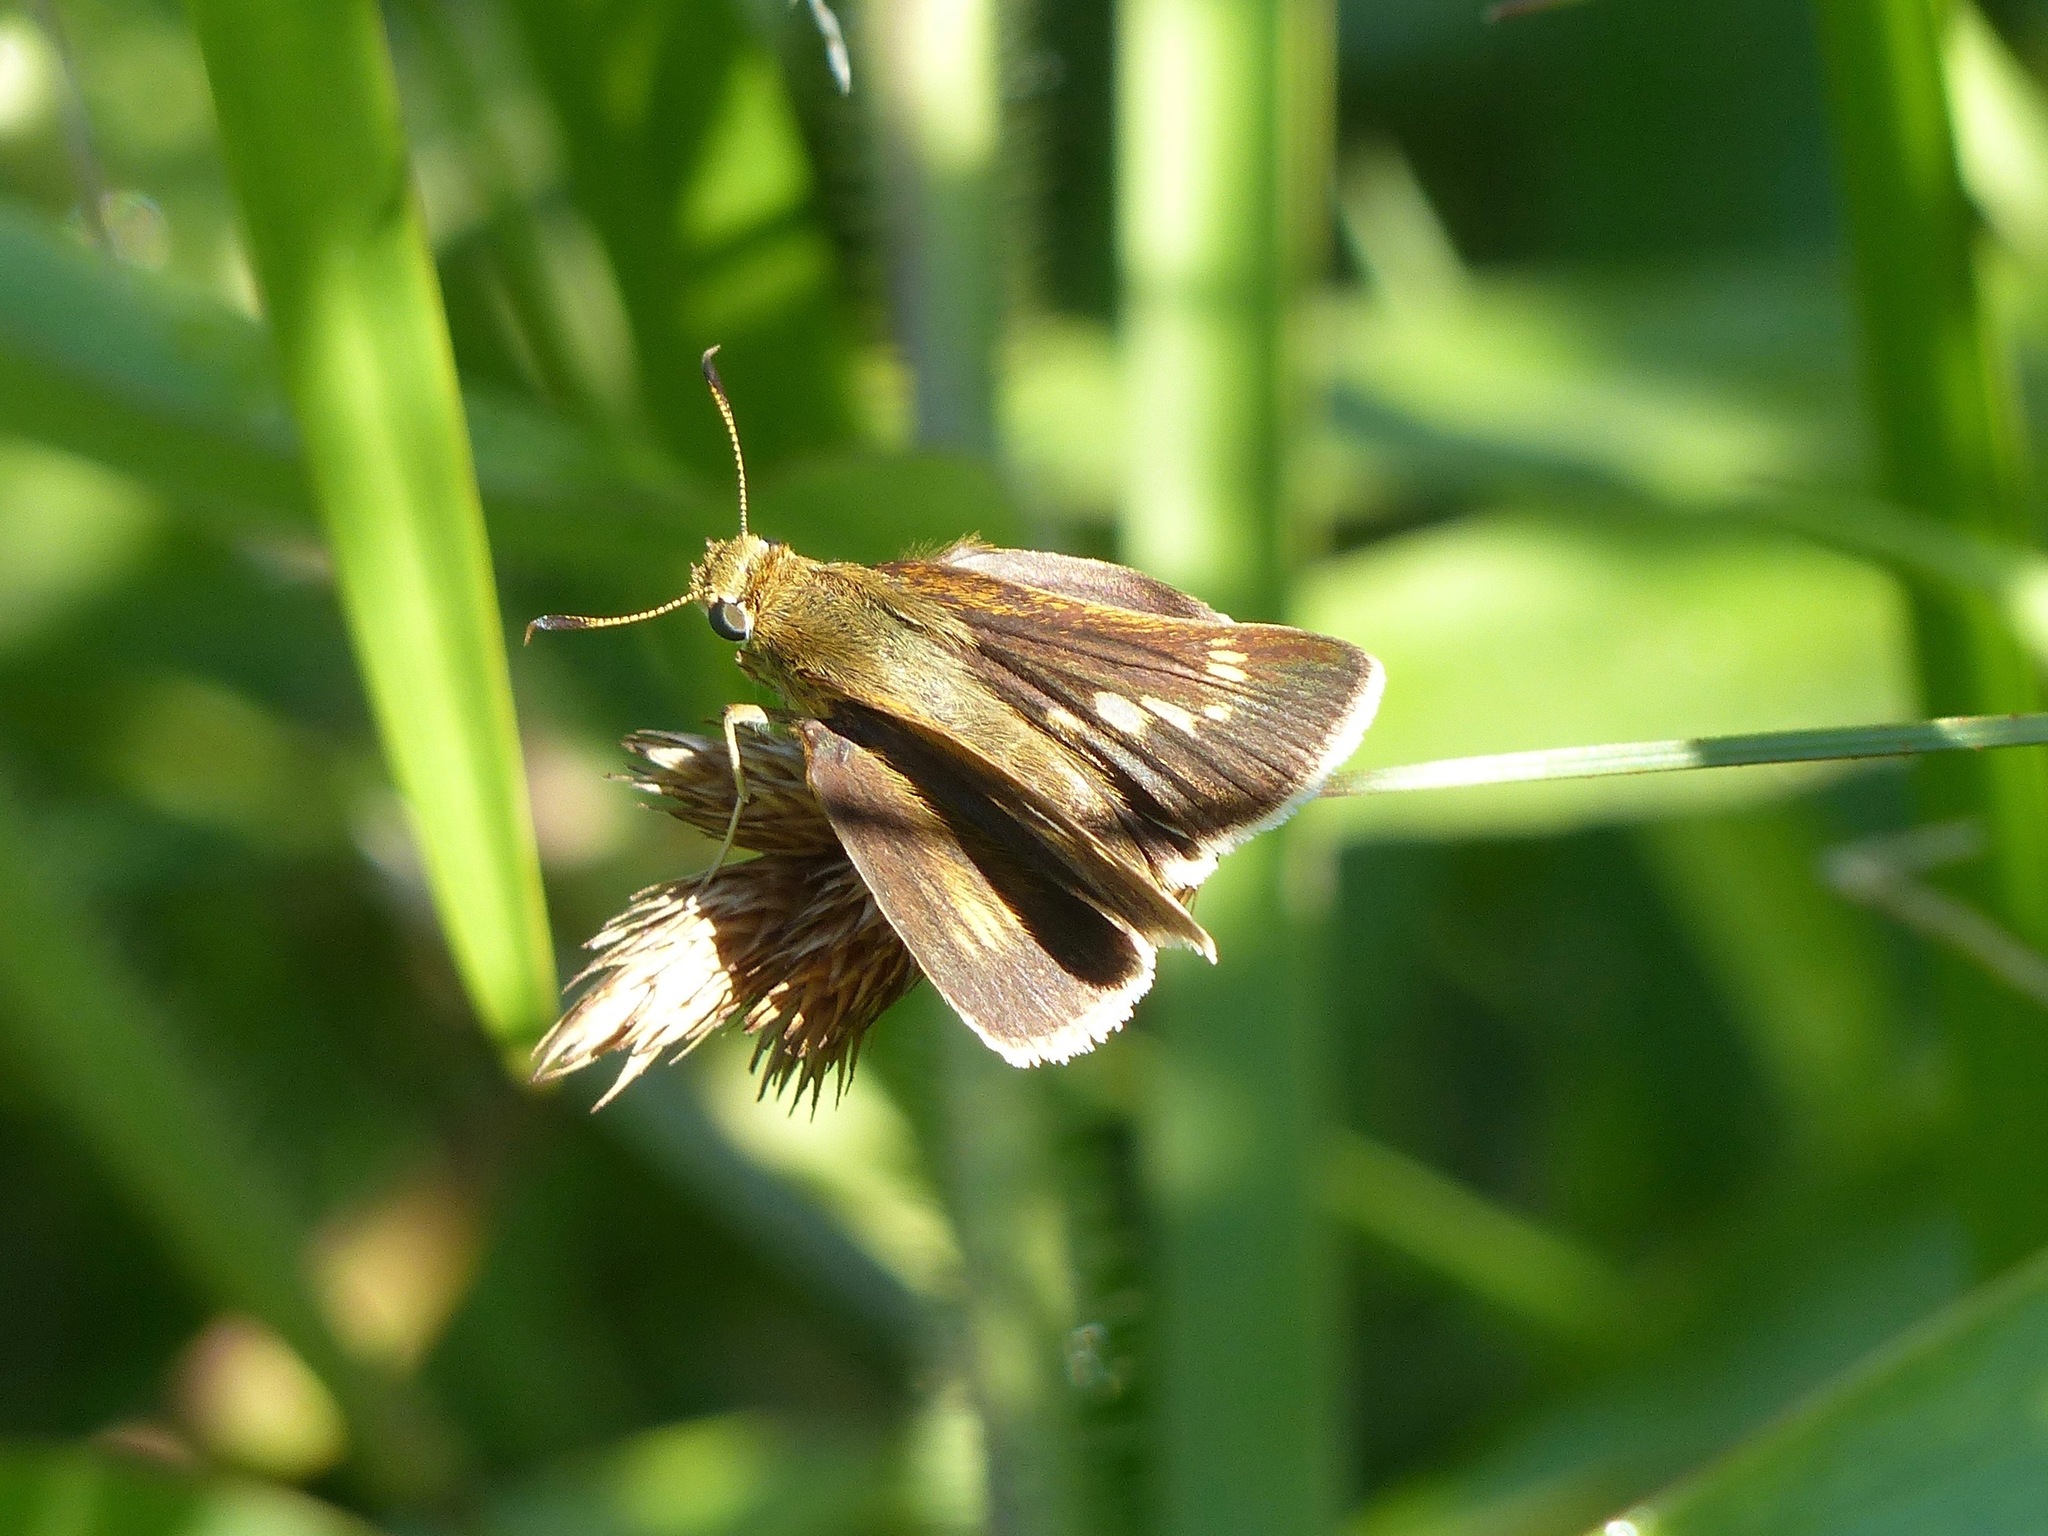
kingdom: Animalia
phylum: Arthropoda
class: Insecta
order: Lepidoptera
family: Hesperiidae
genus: Euphyes
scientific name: Euphyes conspicua
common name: Black dash
